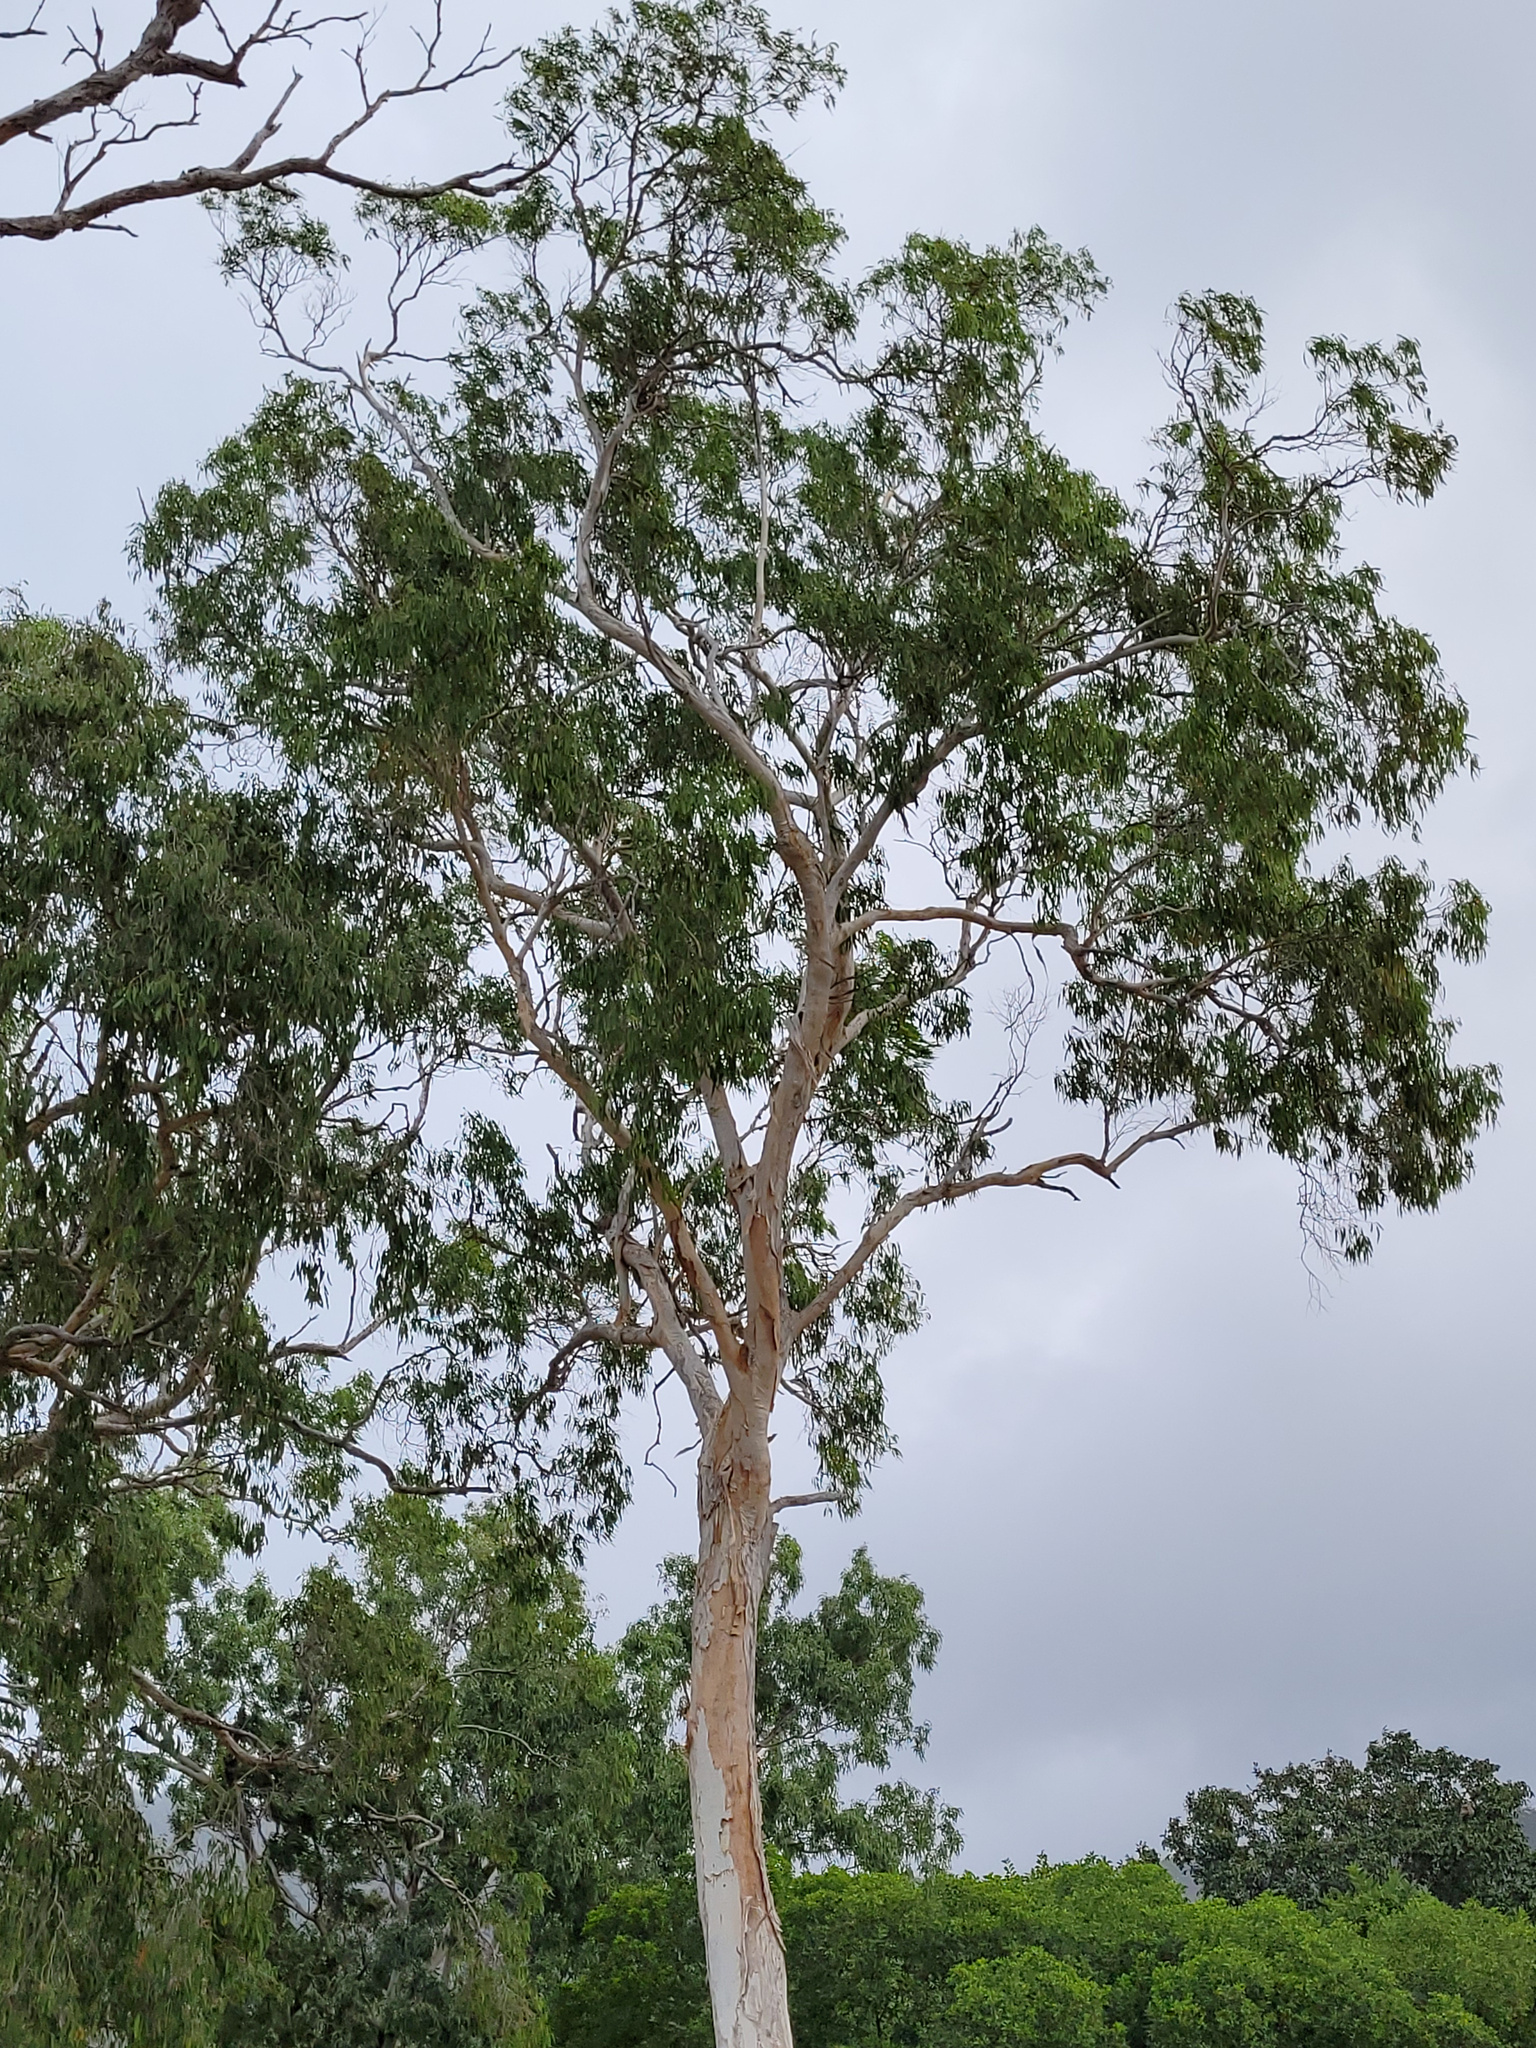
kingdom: Plantae
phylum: Tracheophyta
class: Magnoliopsida
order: Myrtales
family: Myrtaceae
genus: Melaleuca
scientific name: Melaleuca leucadendra
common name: Weeping paperbark
